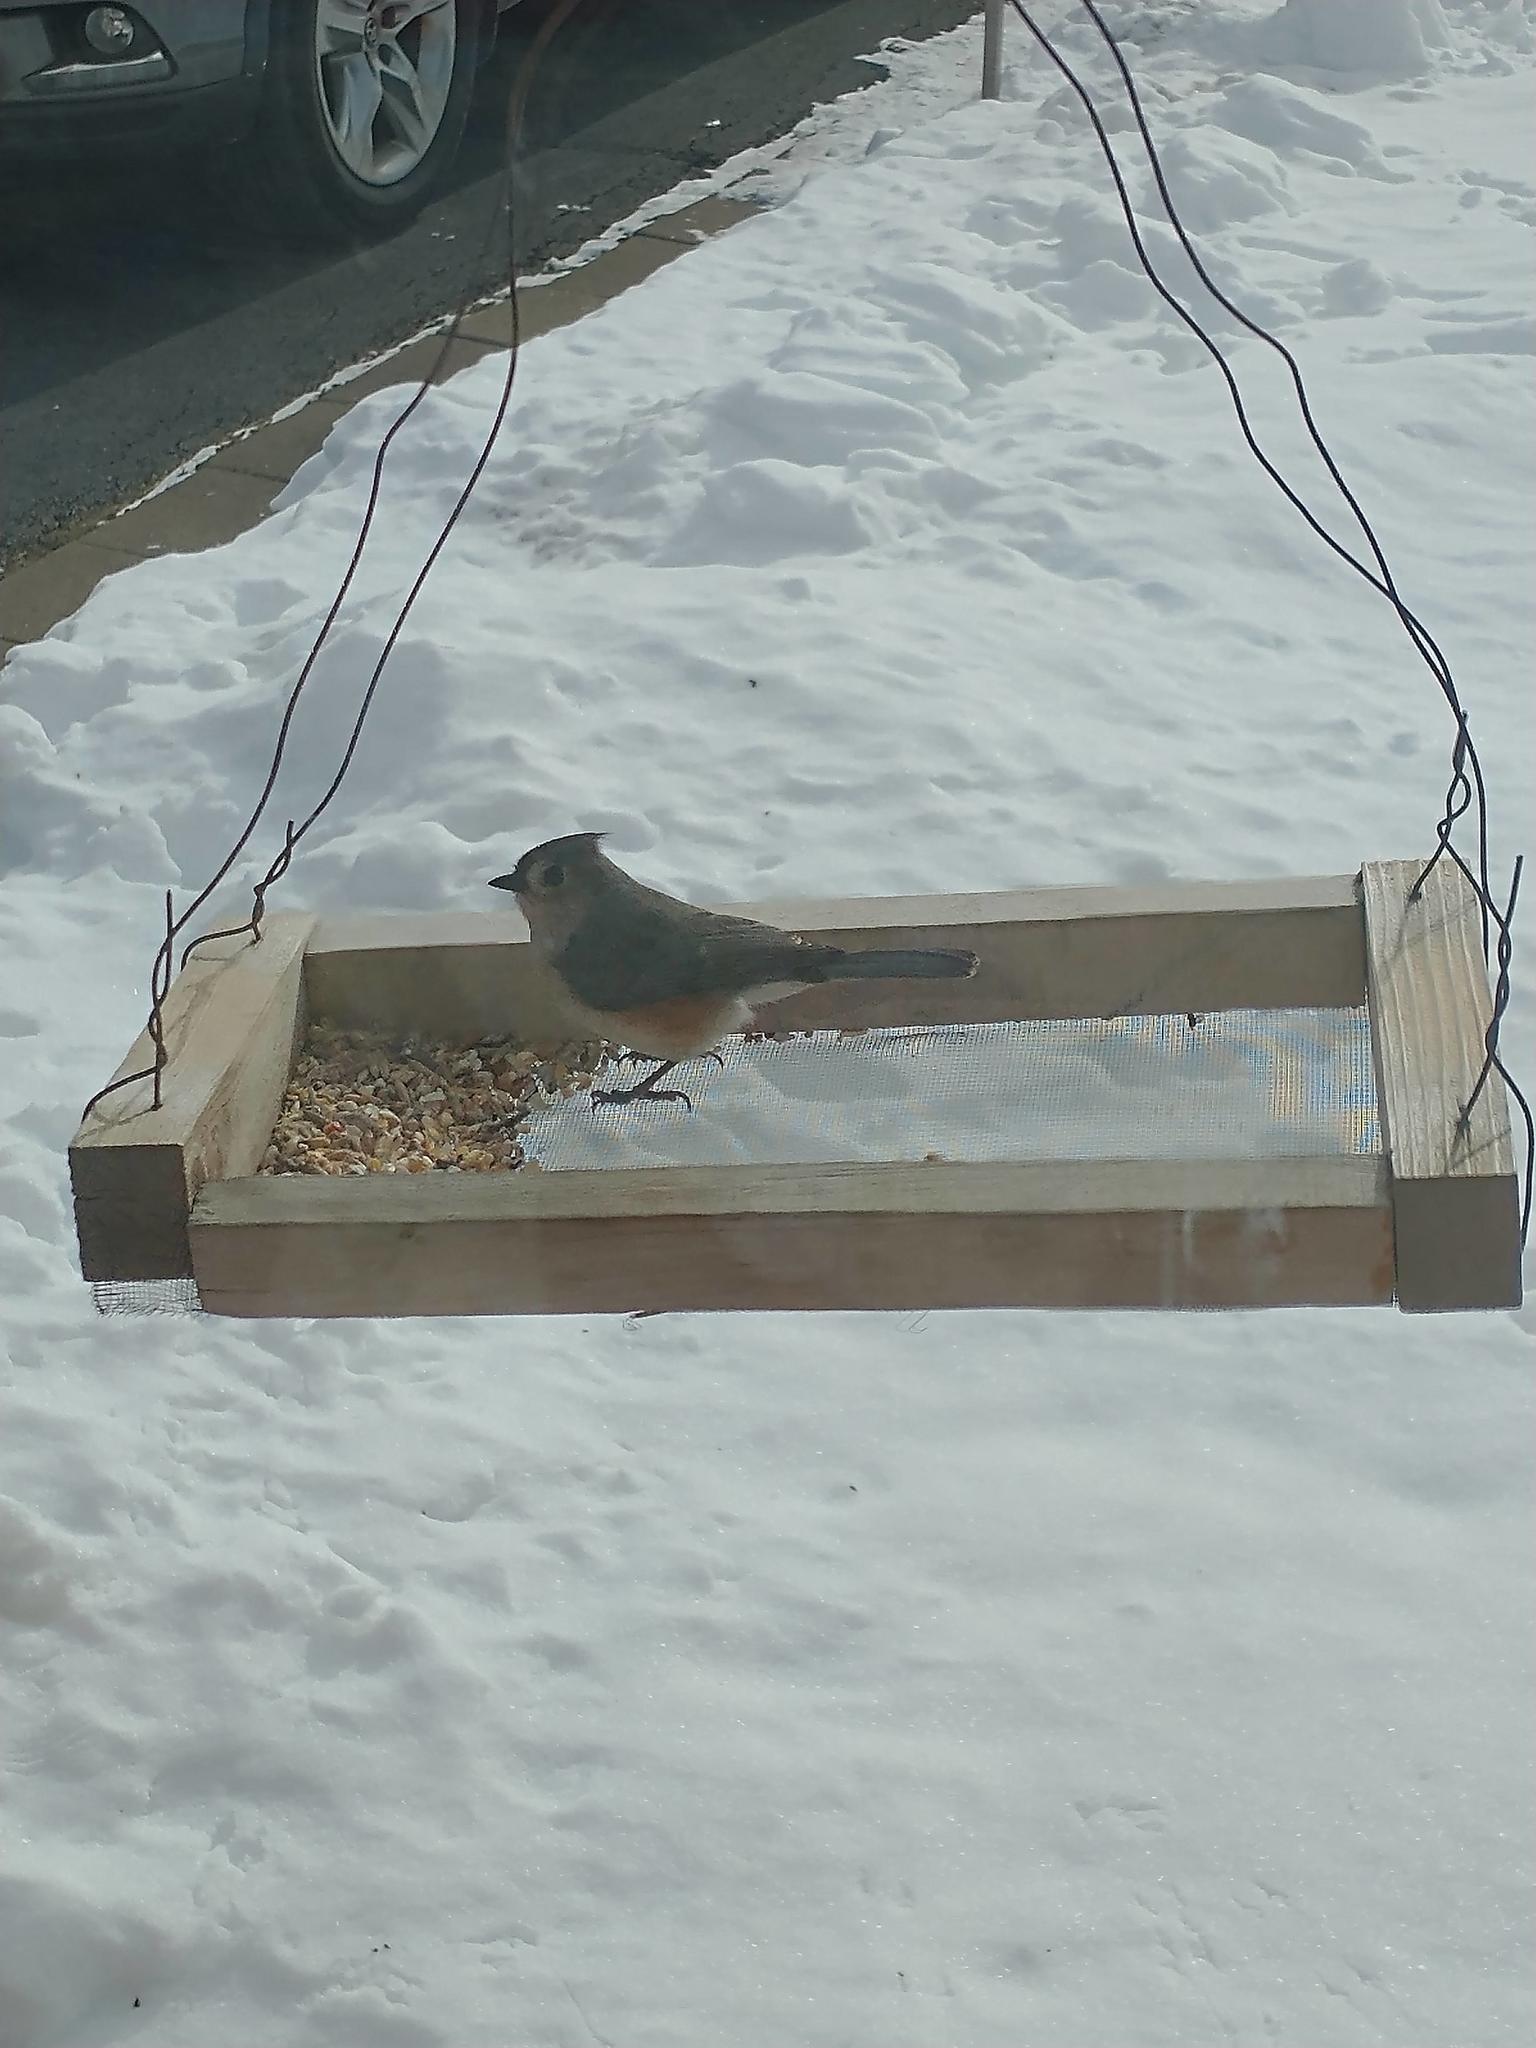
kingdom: Animalia
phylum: Chordata
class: Aves
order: Passeriformes
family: Paridae
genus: Baeolophus
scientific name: Baeolophus bicolor
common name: Tufted titmouse
